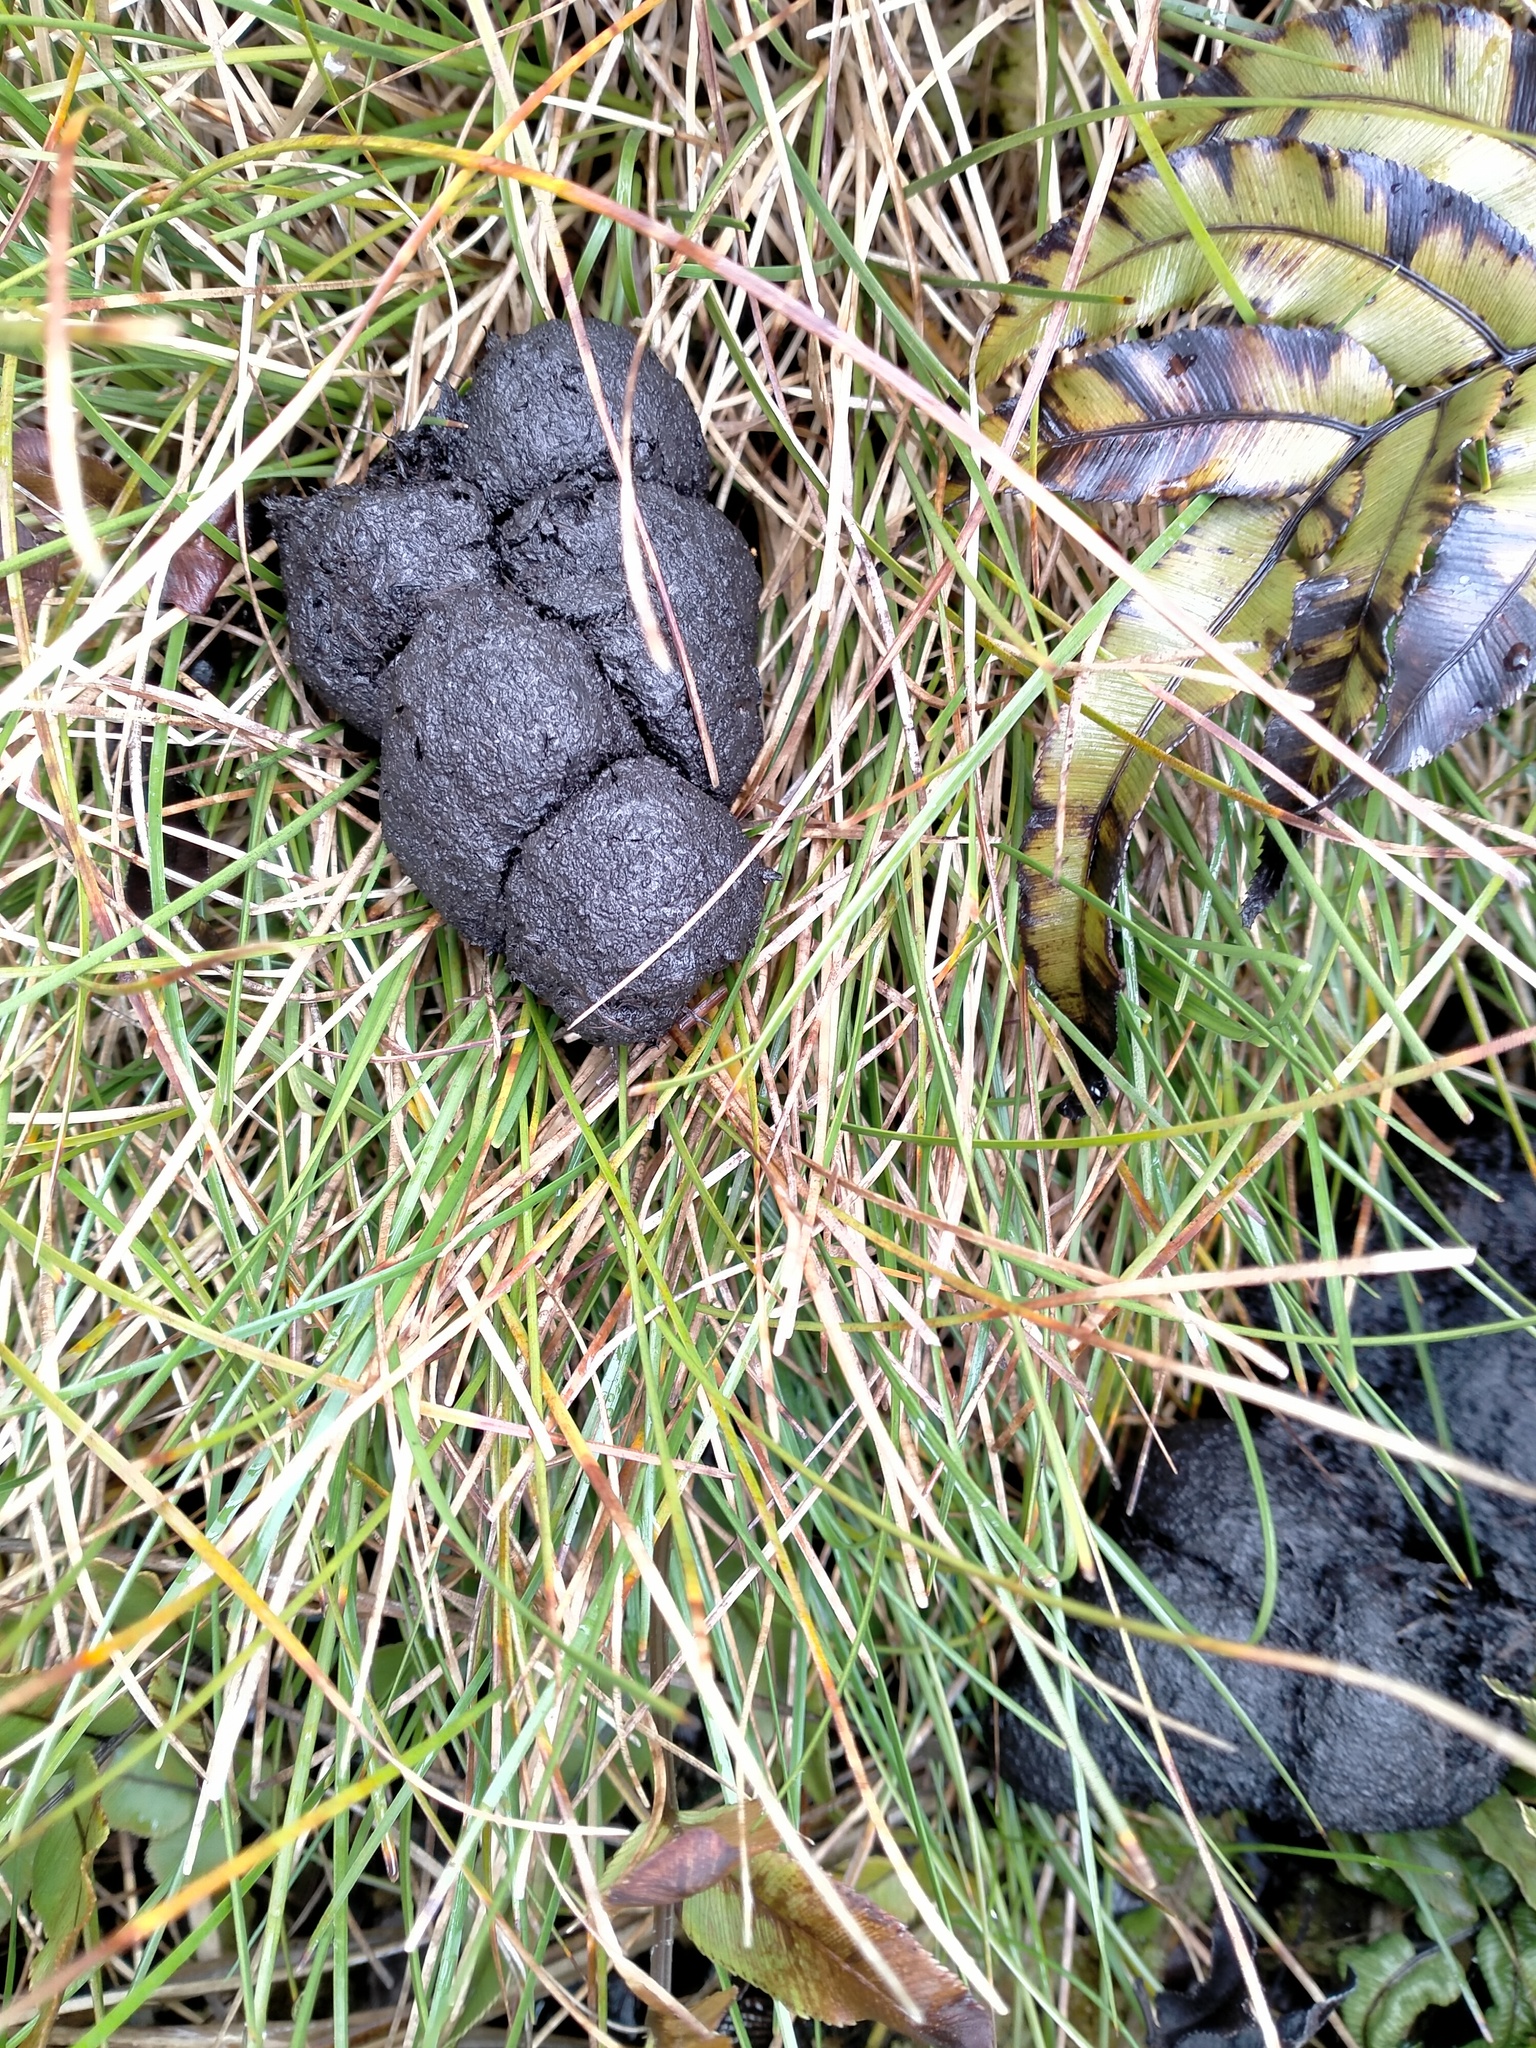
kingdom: Animalia
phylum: Chordata
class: Mammalia
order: Artiodactyla
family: Suidae
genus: Sus
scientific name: Sus scrofa
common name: Wild boar
